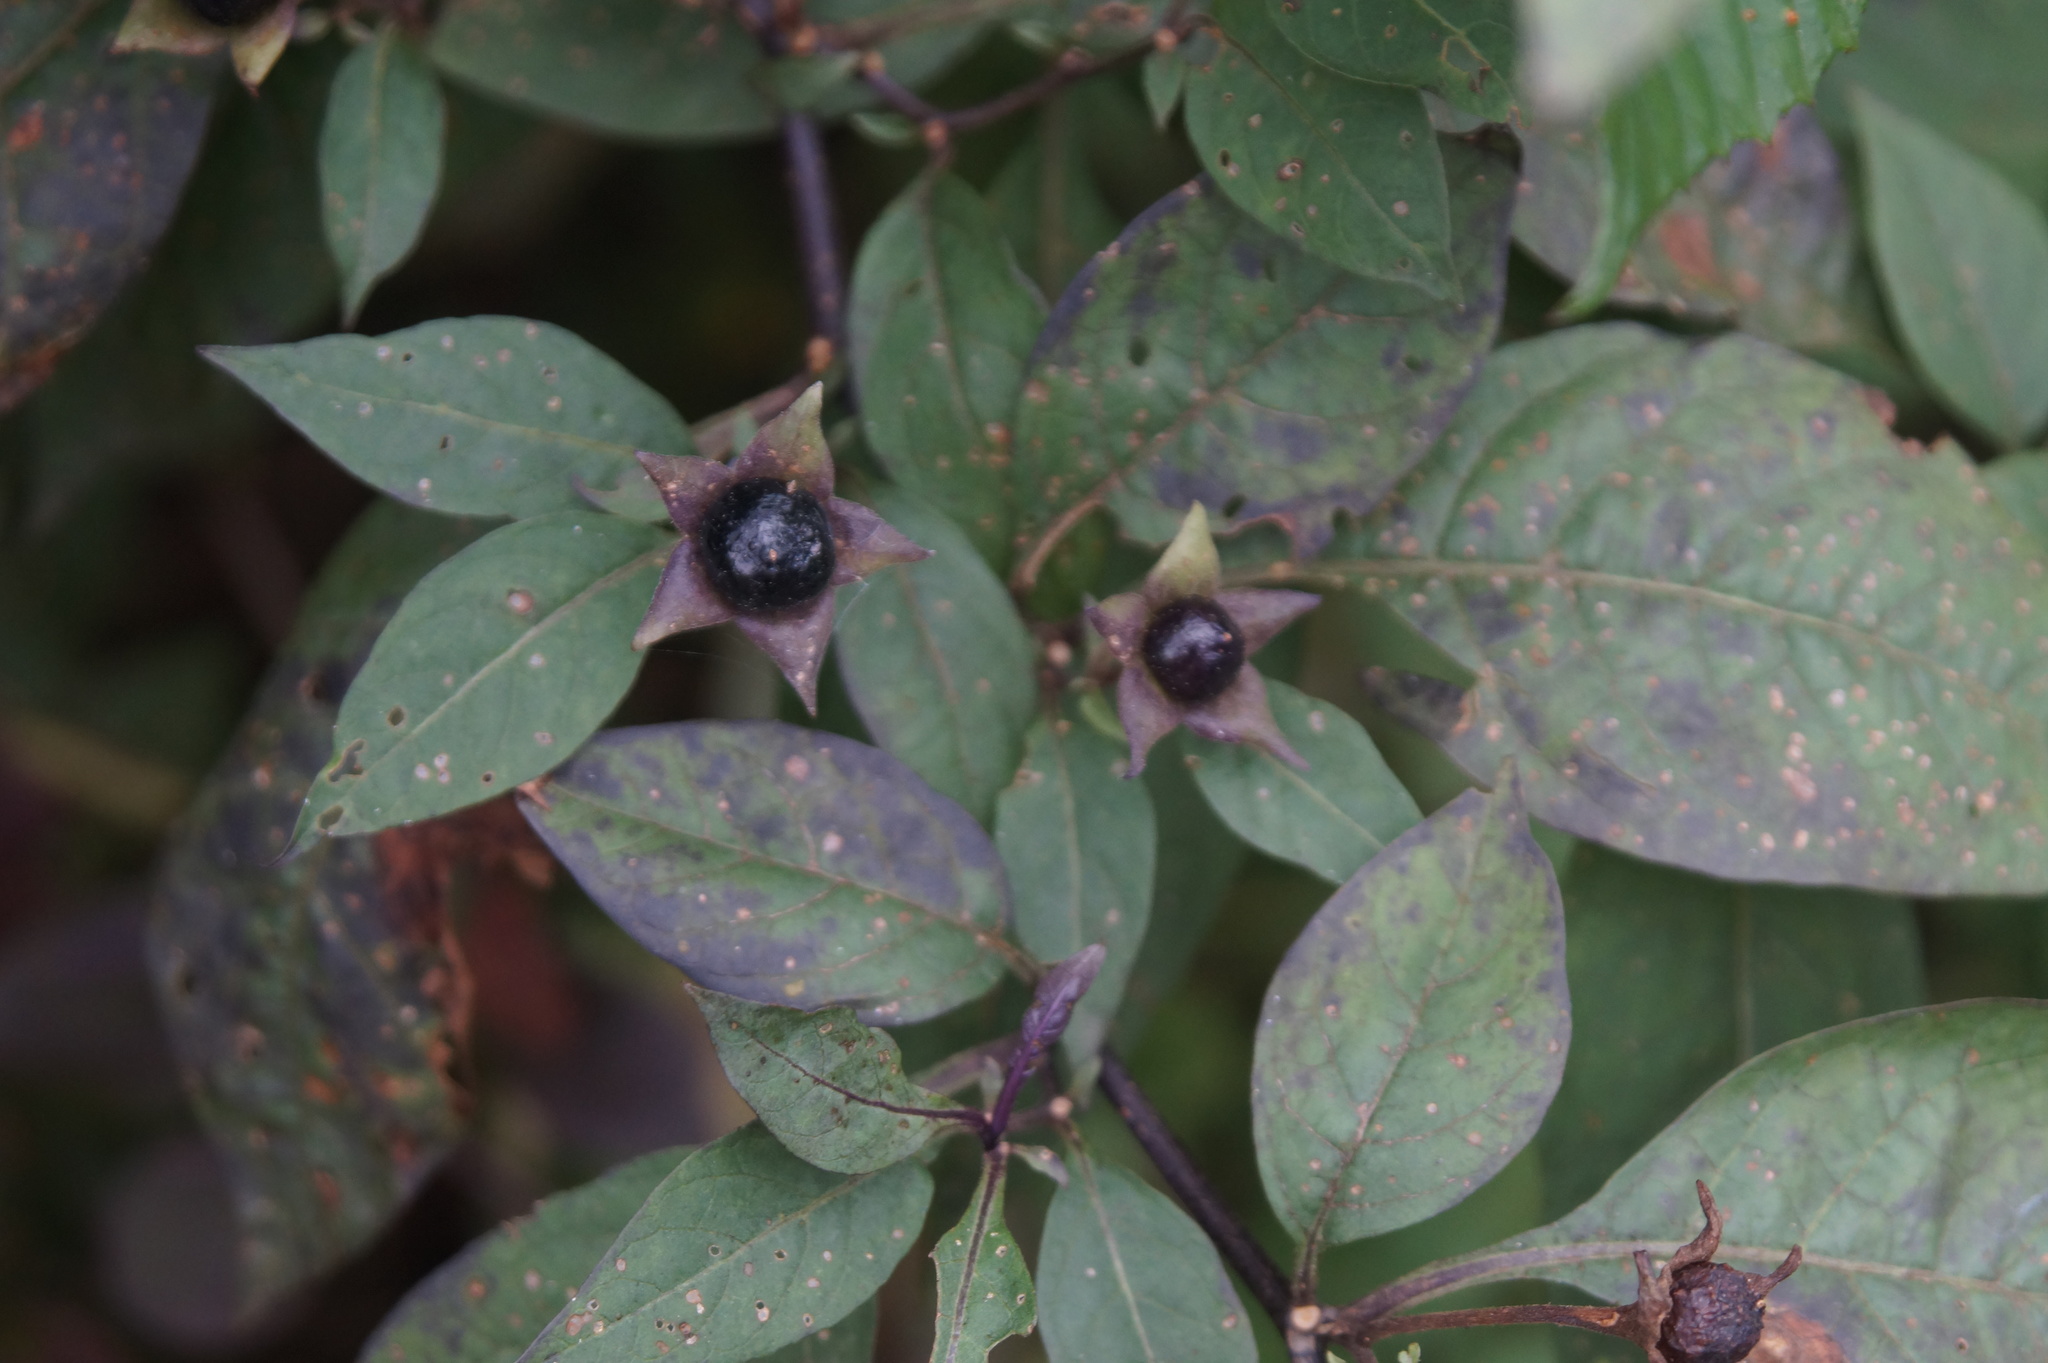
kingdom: Plantae
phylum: Tracheophyta
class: Magnoliopsida
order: Solanales
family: Solanaceae
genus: Atropa
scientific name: Atropa belladonna
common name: Deadly nightshade
